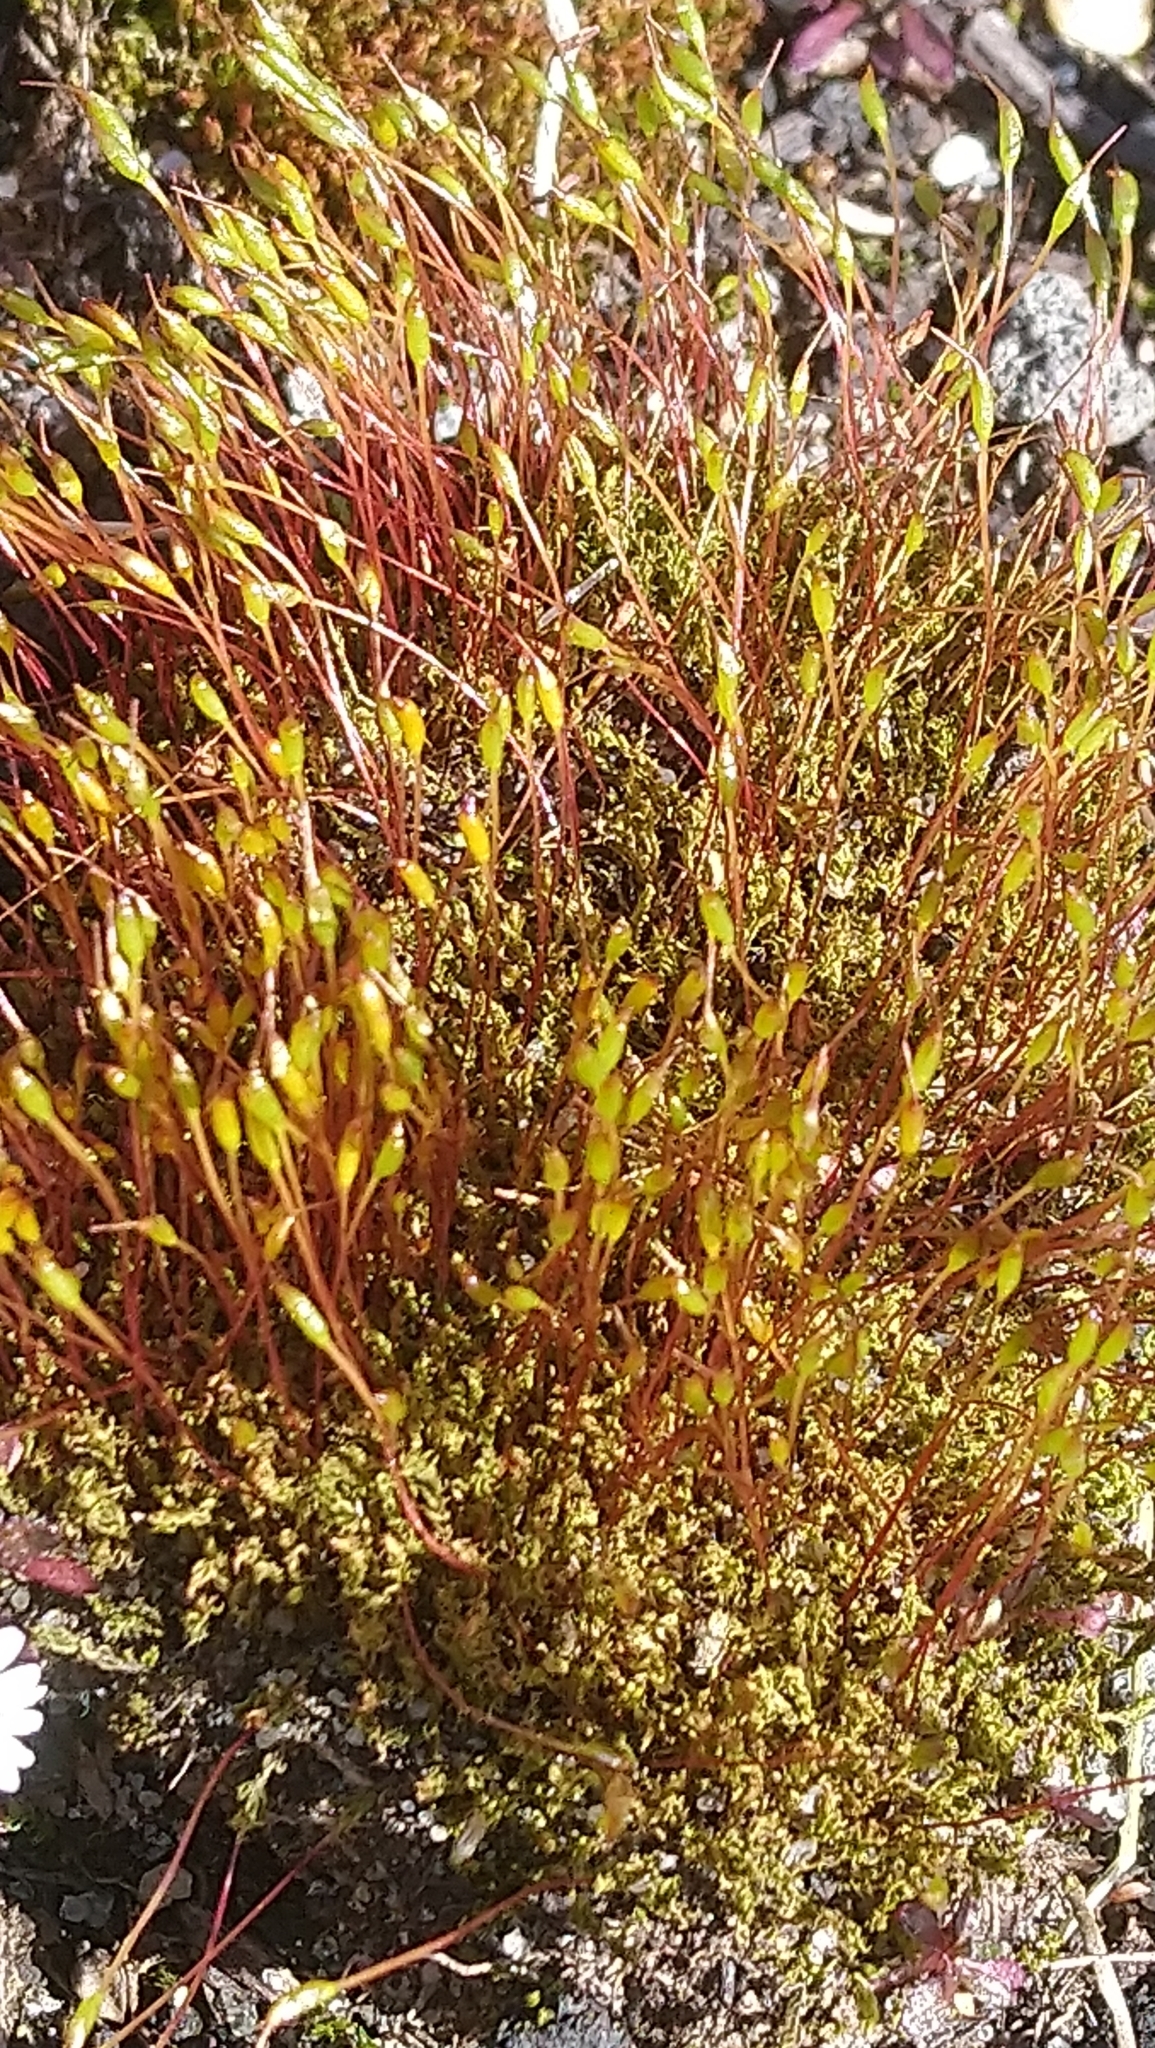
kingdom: Plantae
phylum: Bryophyta
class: Bryopsida
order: Dicranales
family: Ditrichaceae
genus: Ceratodon
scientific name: Ceratodon purpureus
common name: Redshank
